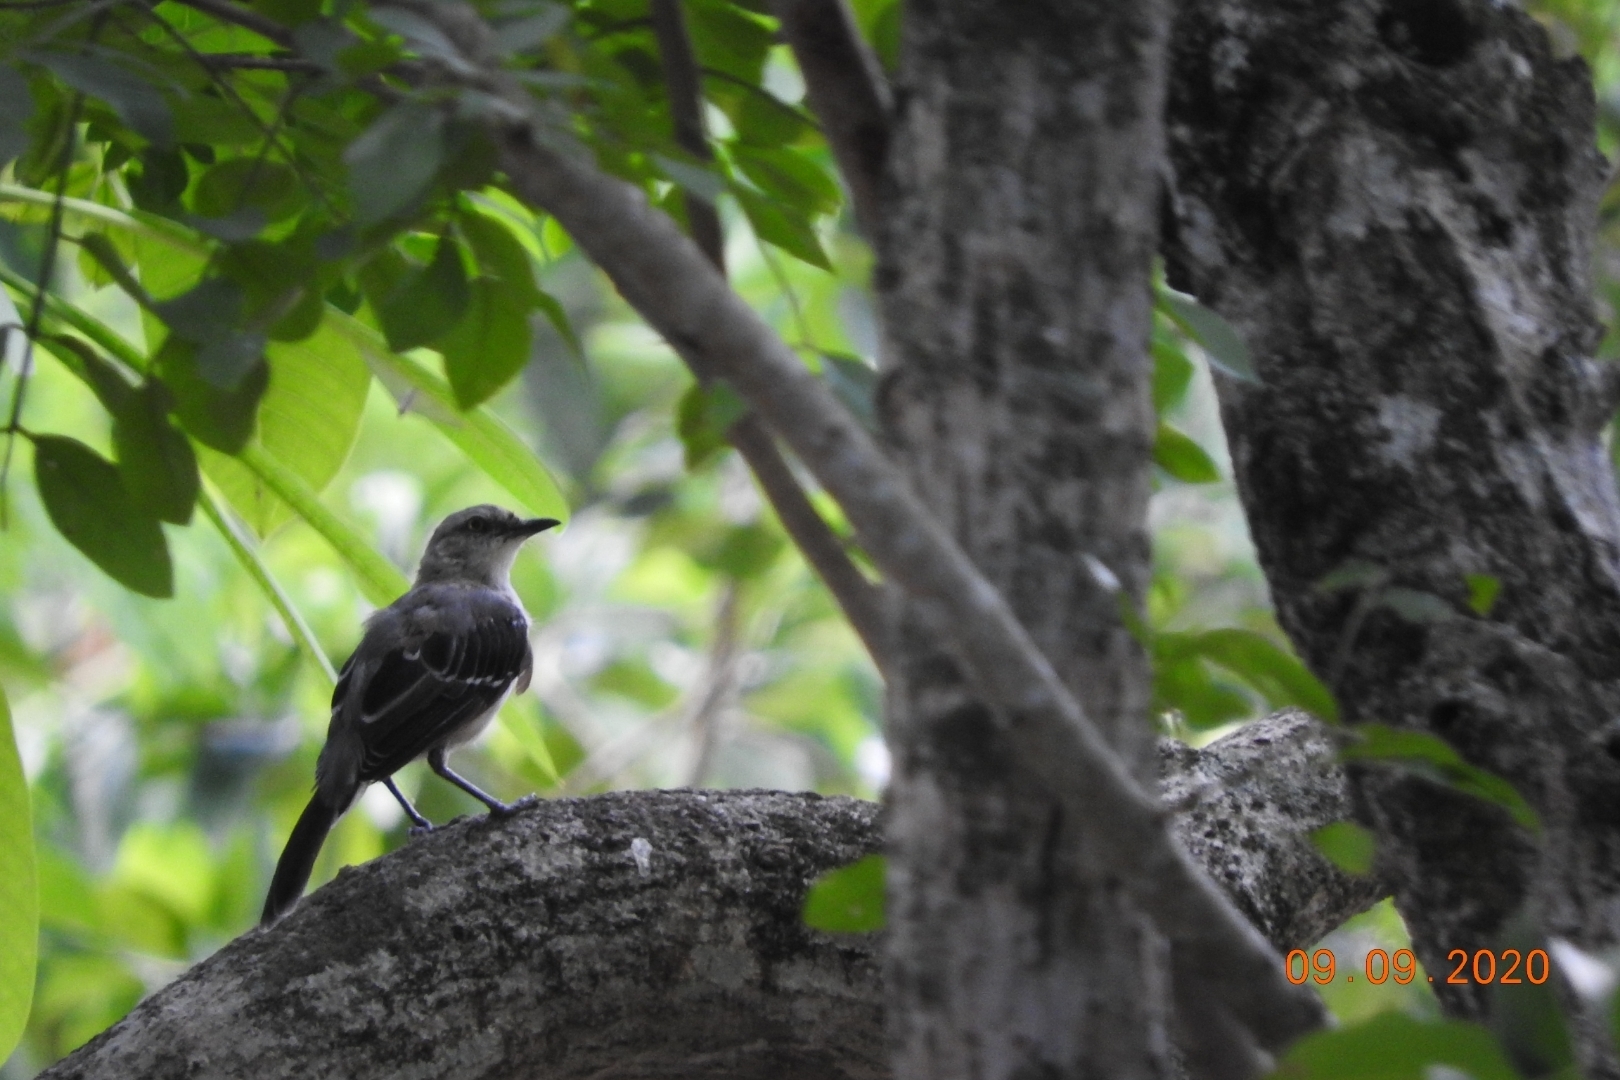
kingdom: Animalia
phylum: Chordata
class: Aves
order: Passeriformes
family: Mimidae
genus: Mimus
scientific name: Mimus gilvus
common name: Tropical mockingbird
